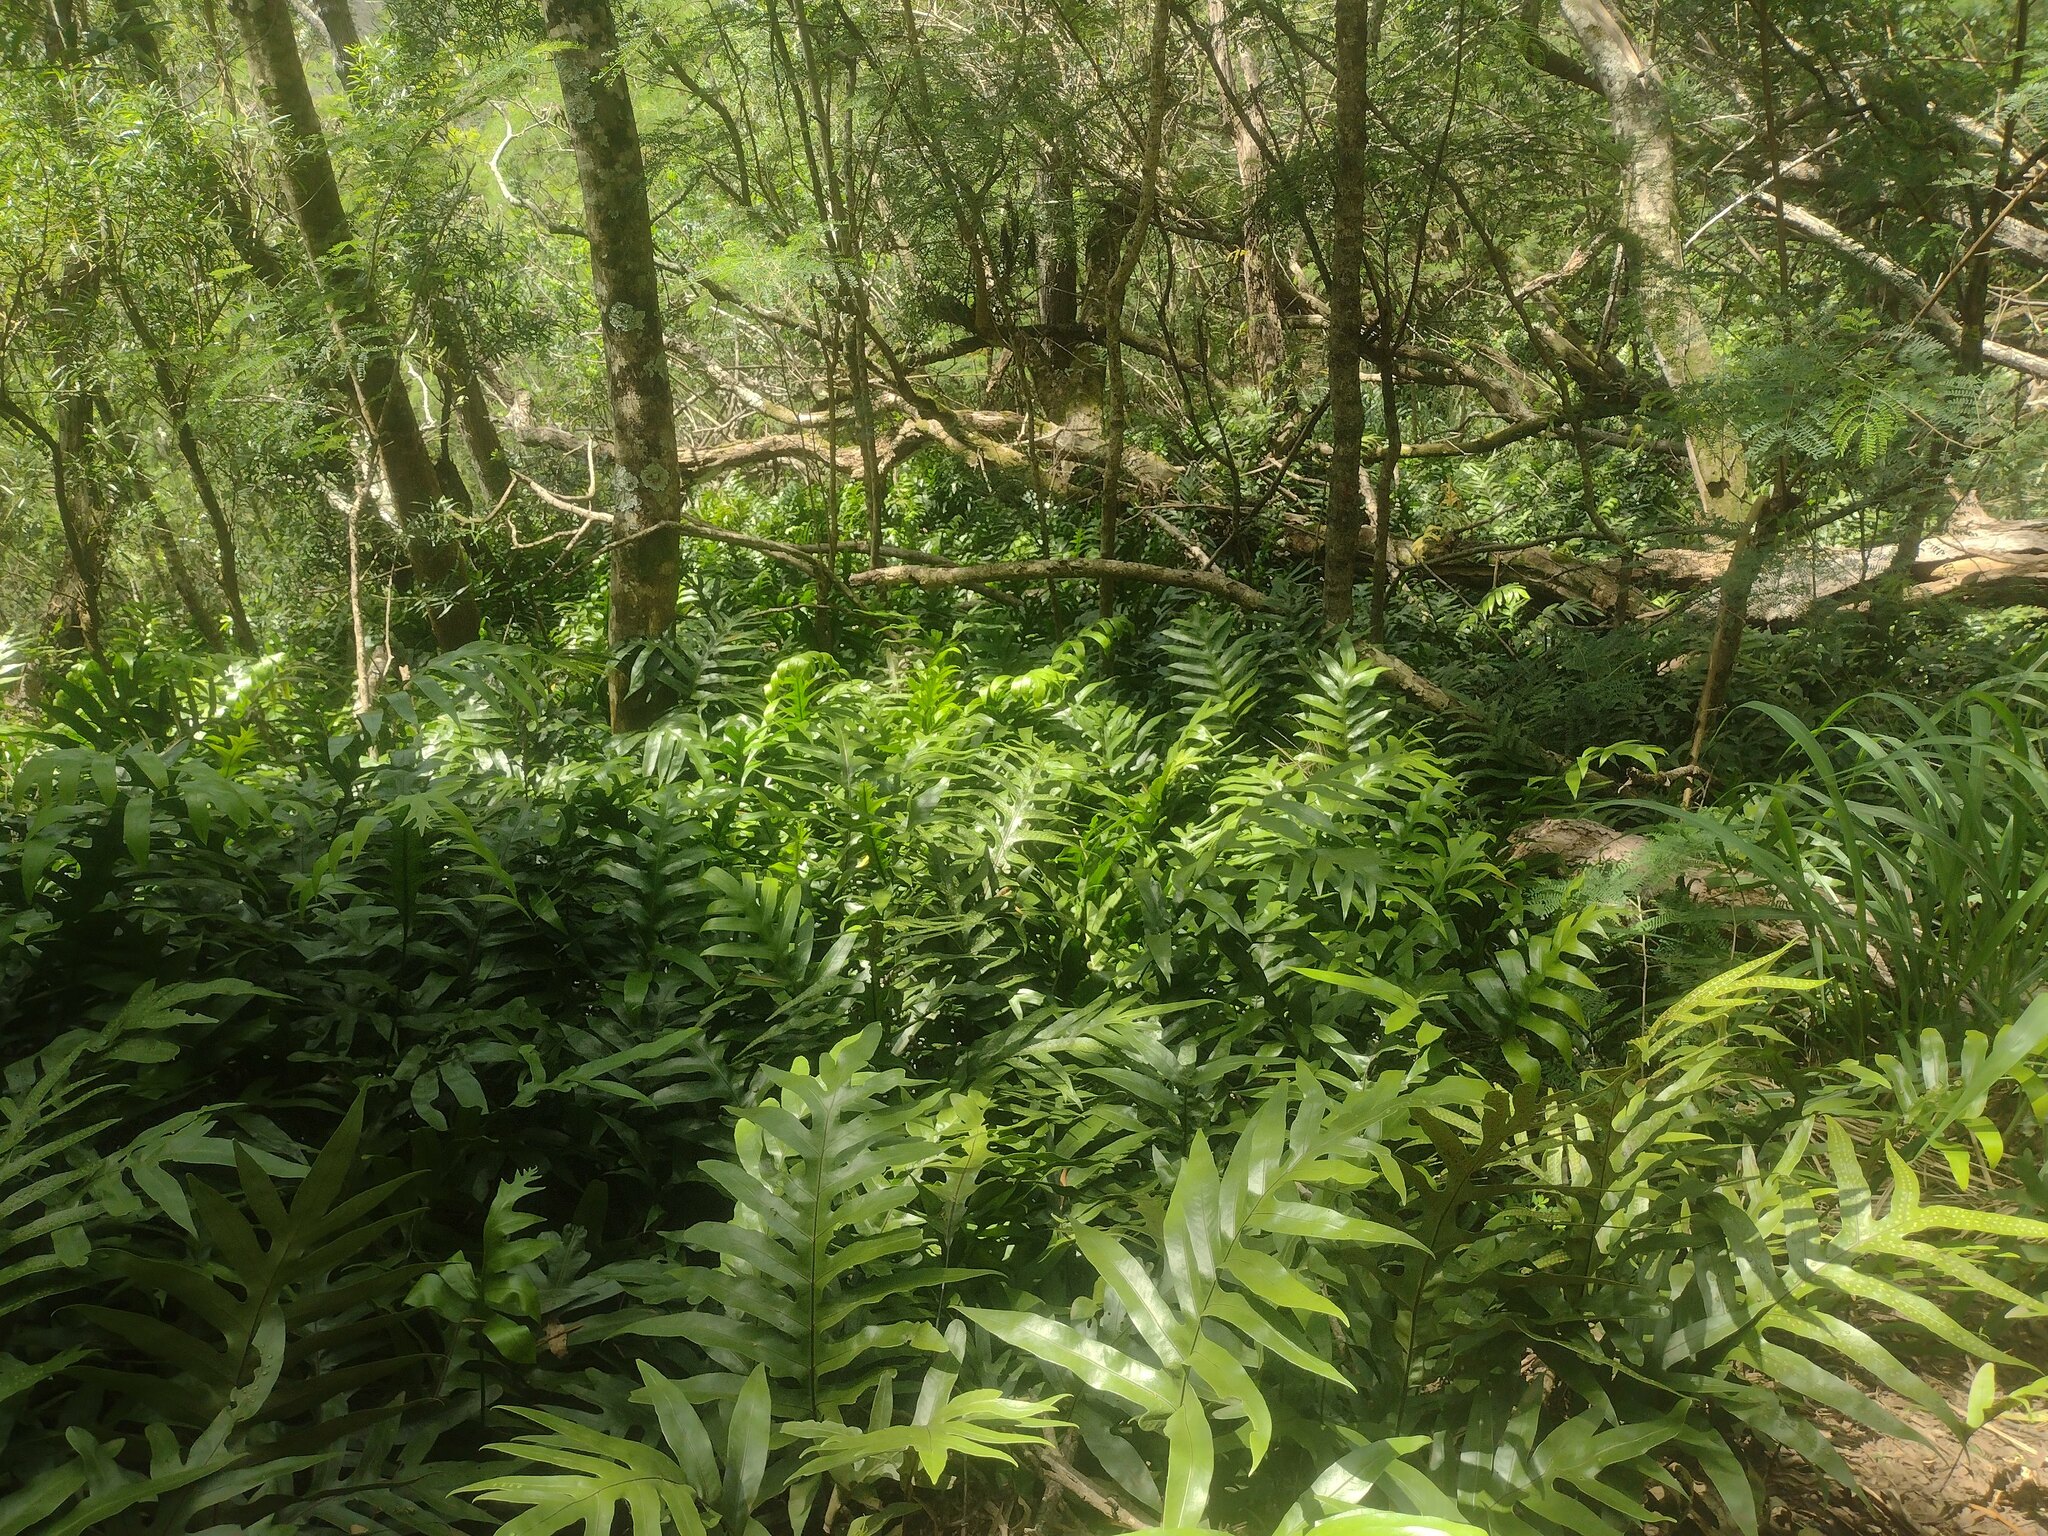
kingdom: Plantae
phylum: Tracheophyta
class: Polypodiopsida
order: Polypodiales
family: Polypodiaceae
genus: Microsorum
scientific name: Microsorum grossum
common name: Musk fern
